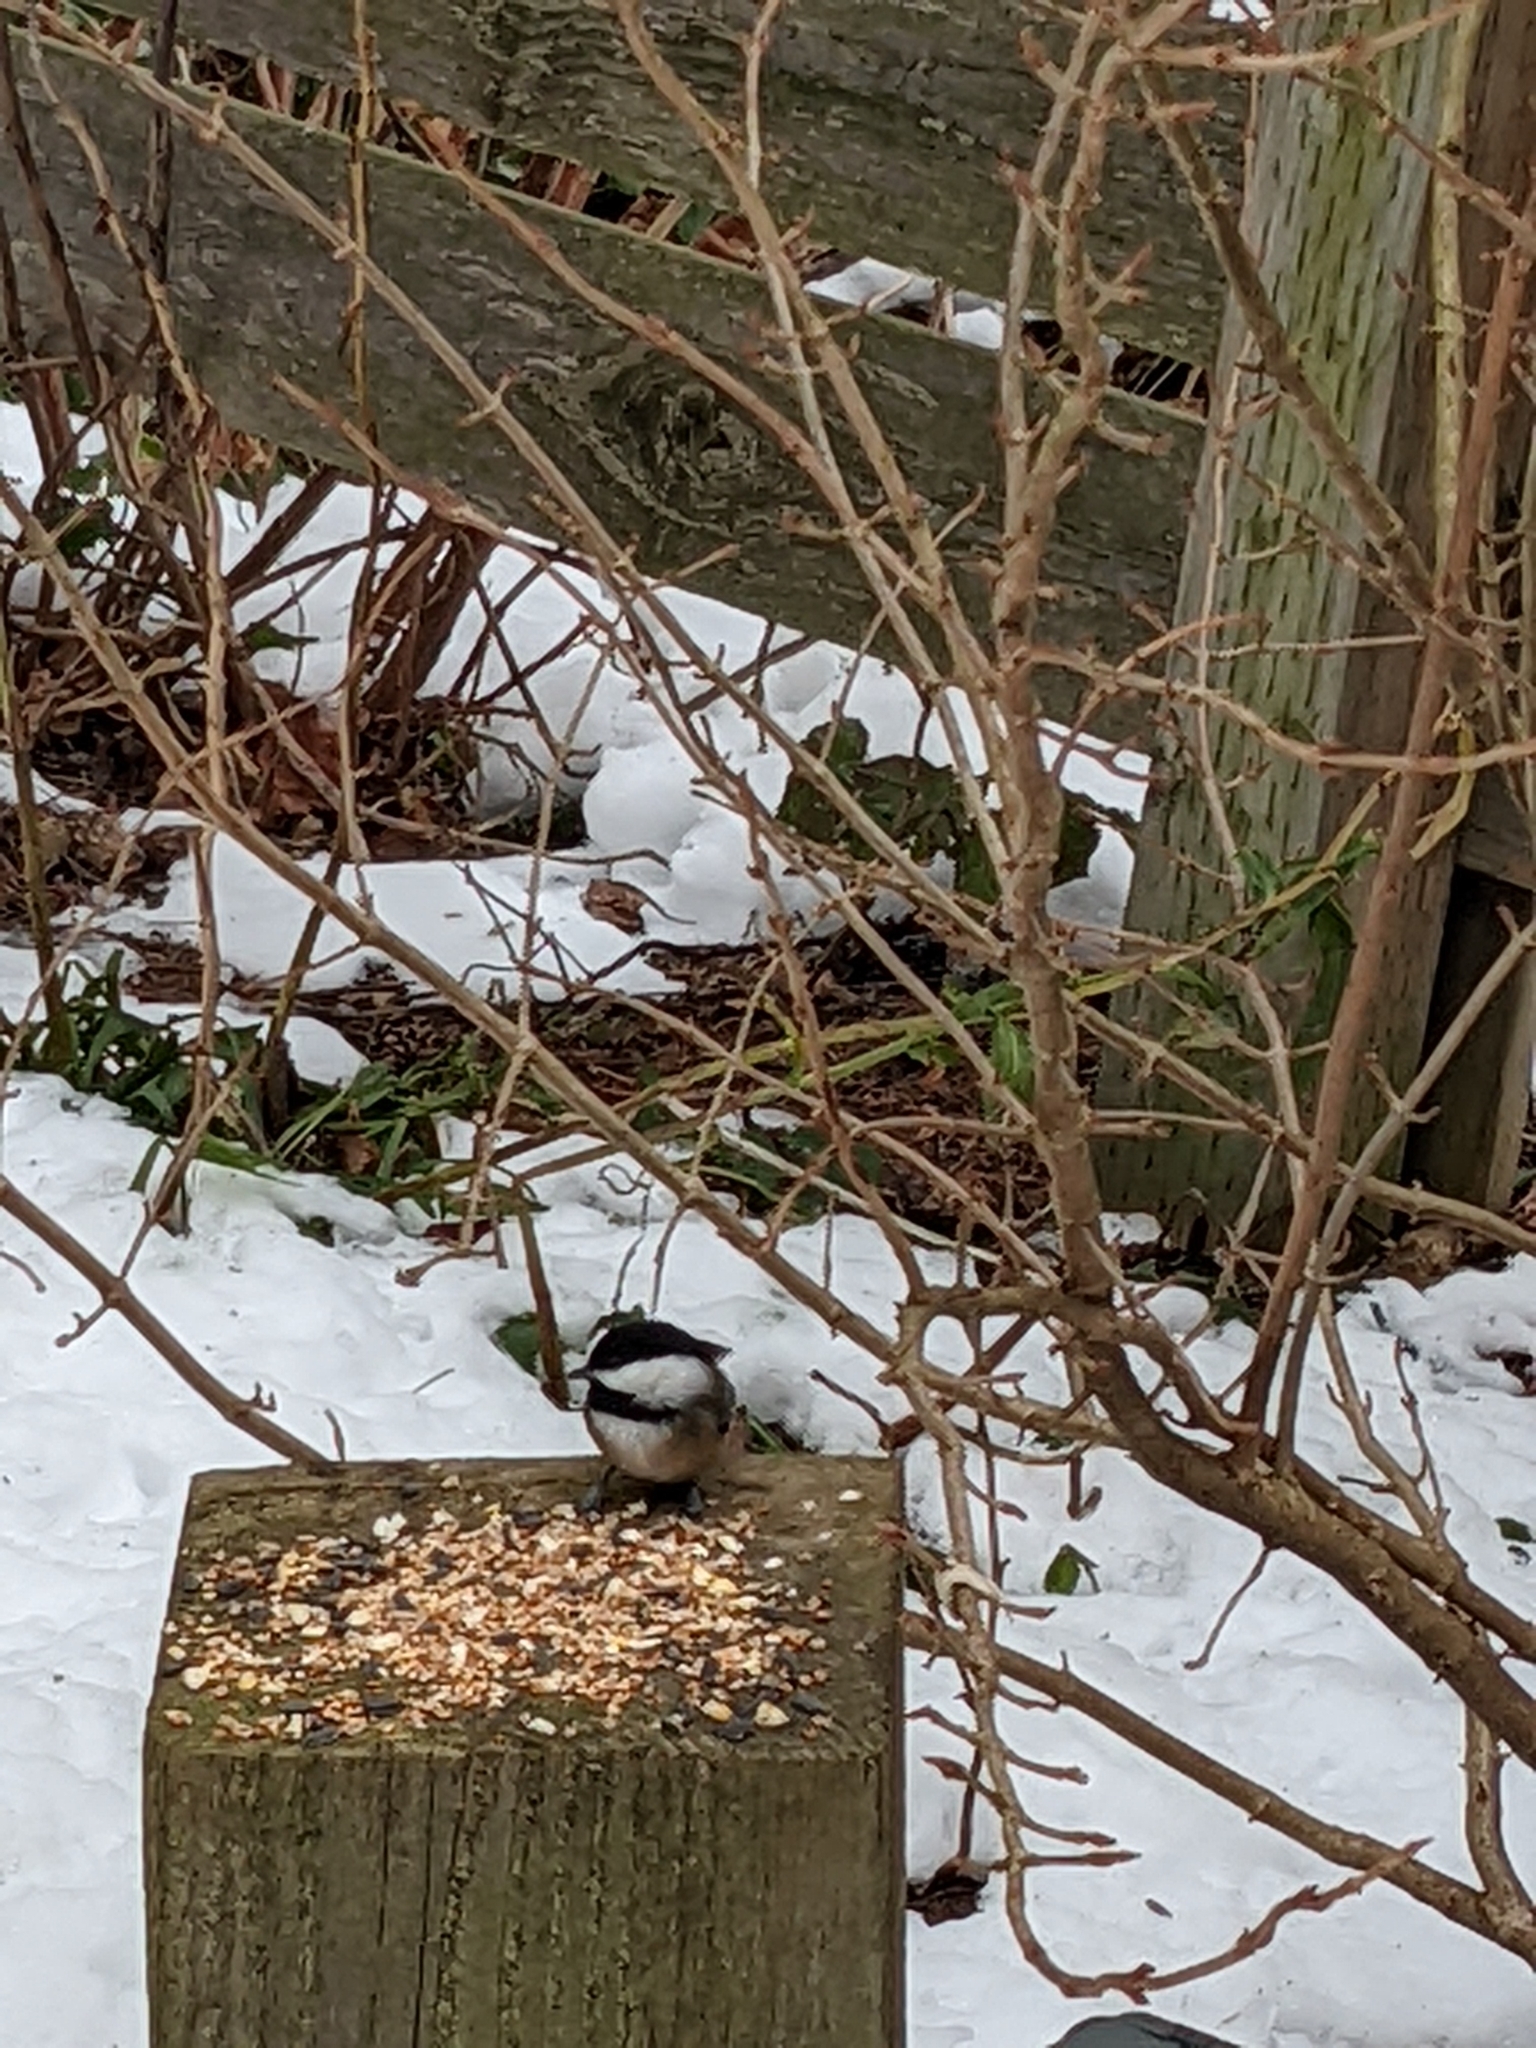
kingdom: Animalia
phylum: Chordata
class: Aves
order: Passeriformes
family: Paridae
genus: Poecile
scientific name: Poecile atricapillus
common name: Black-capped chickadee
